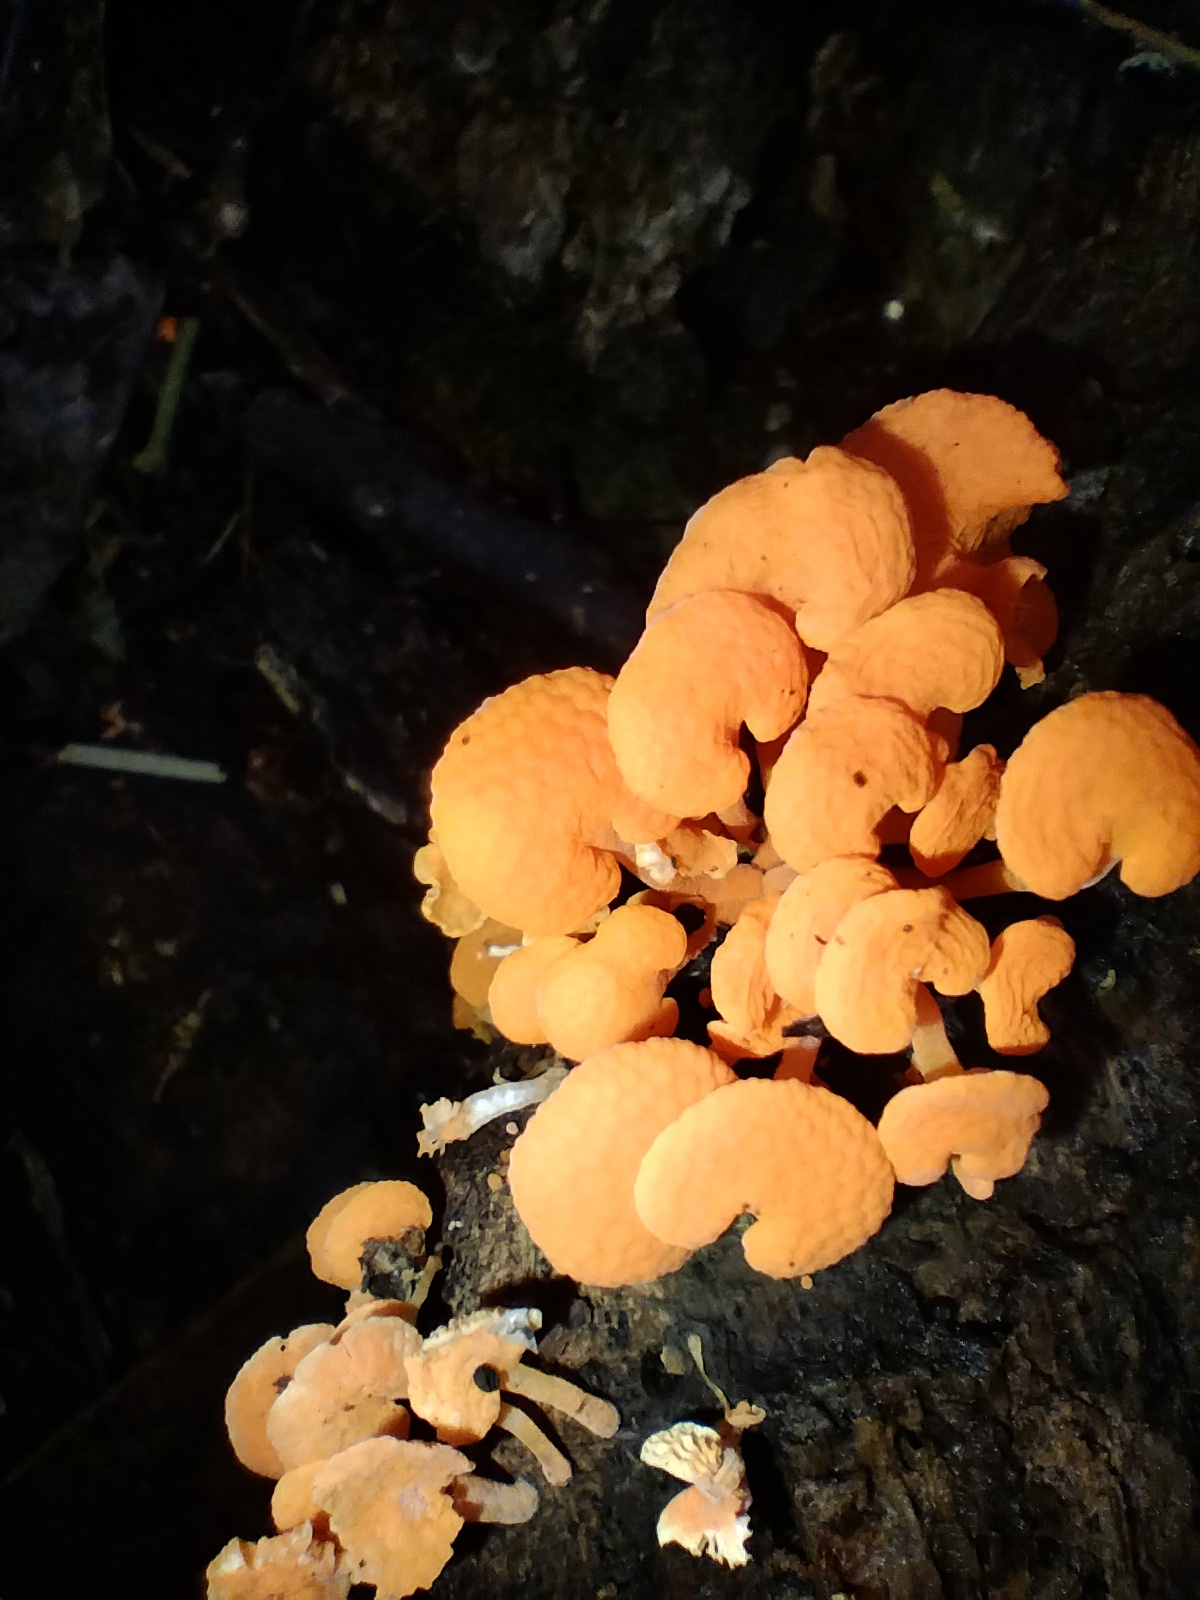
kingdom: Fungi
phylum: Basidiomycota
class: Agaricomycetes
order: Agaricales
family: Mycenaceae
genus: Favolaschia
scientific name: Favolaschia claudopus
